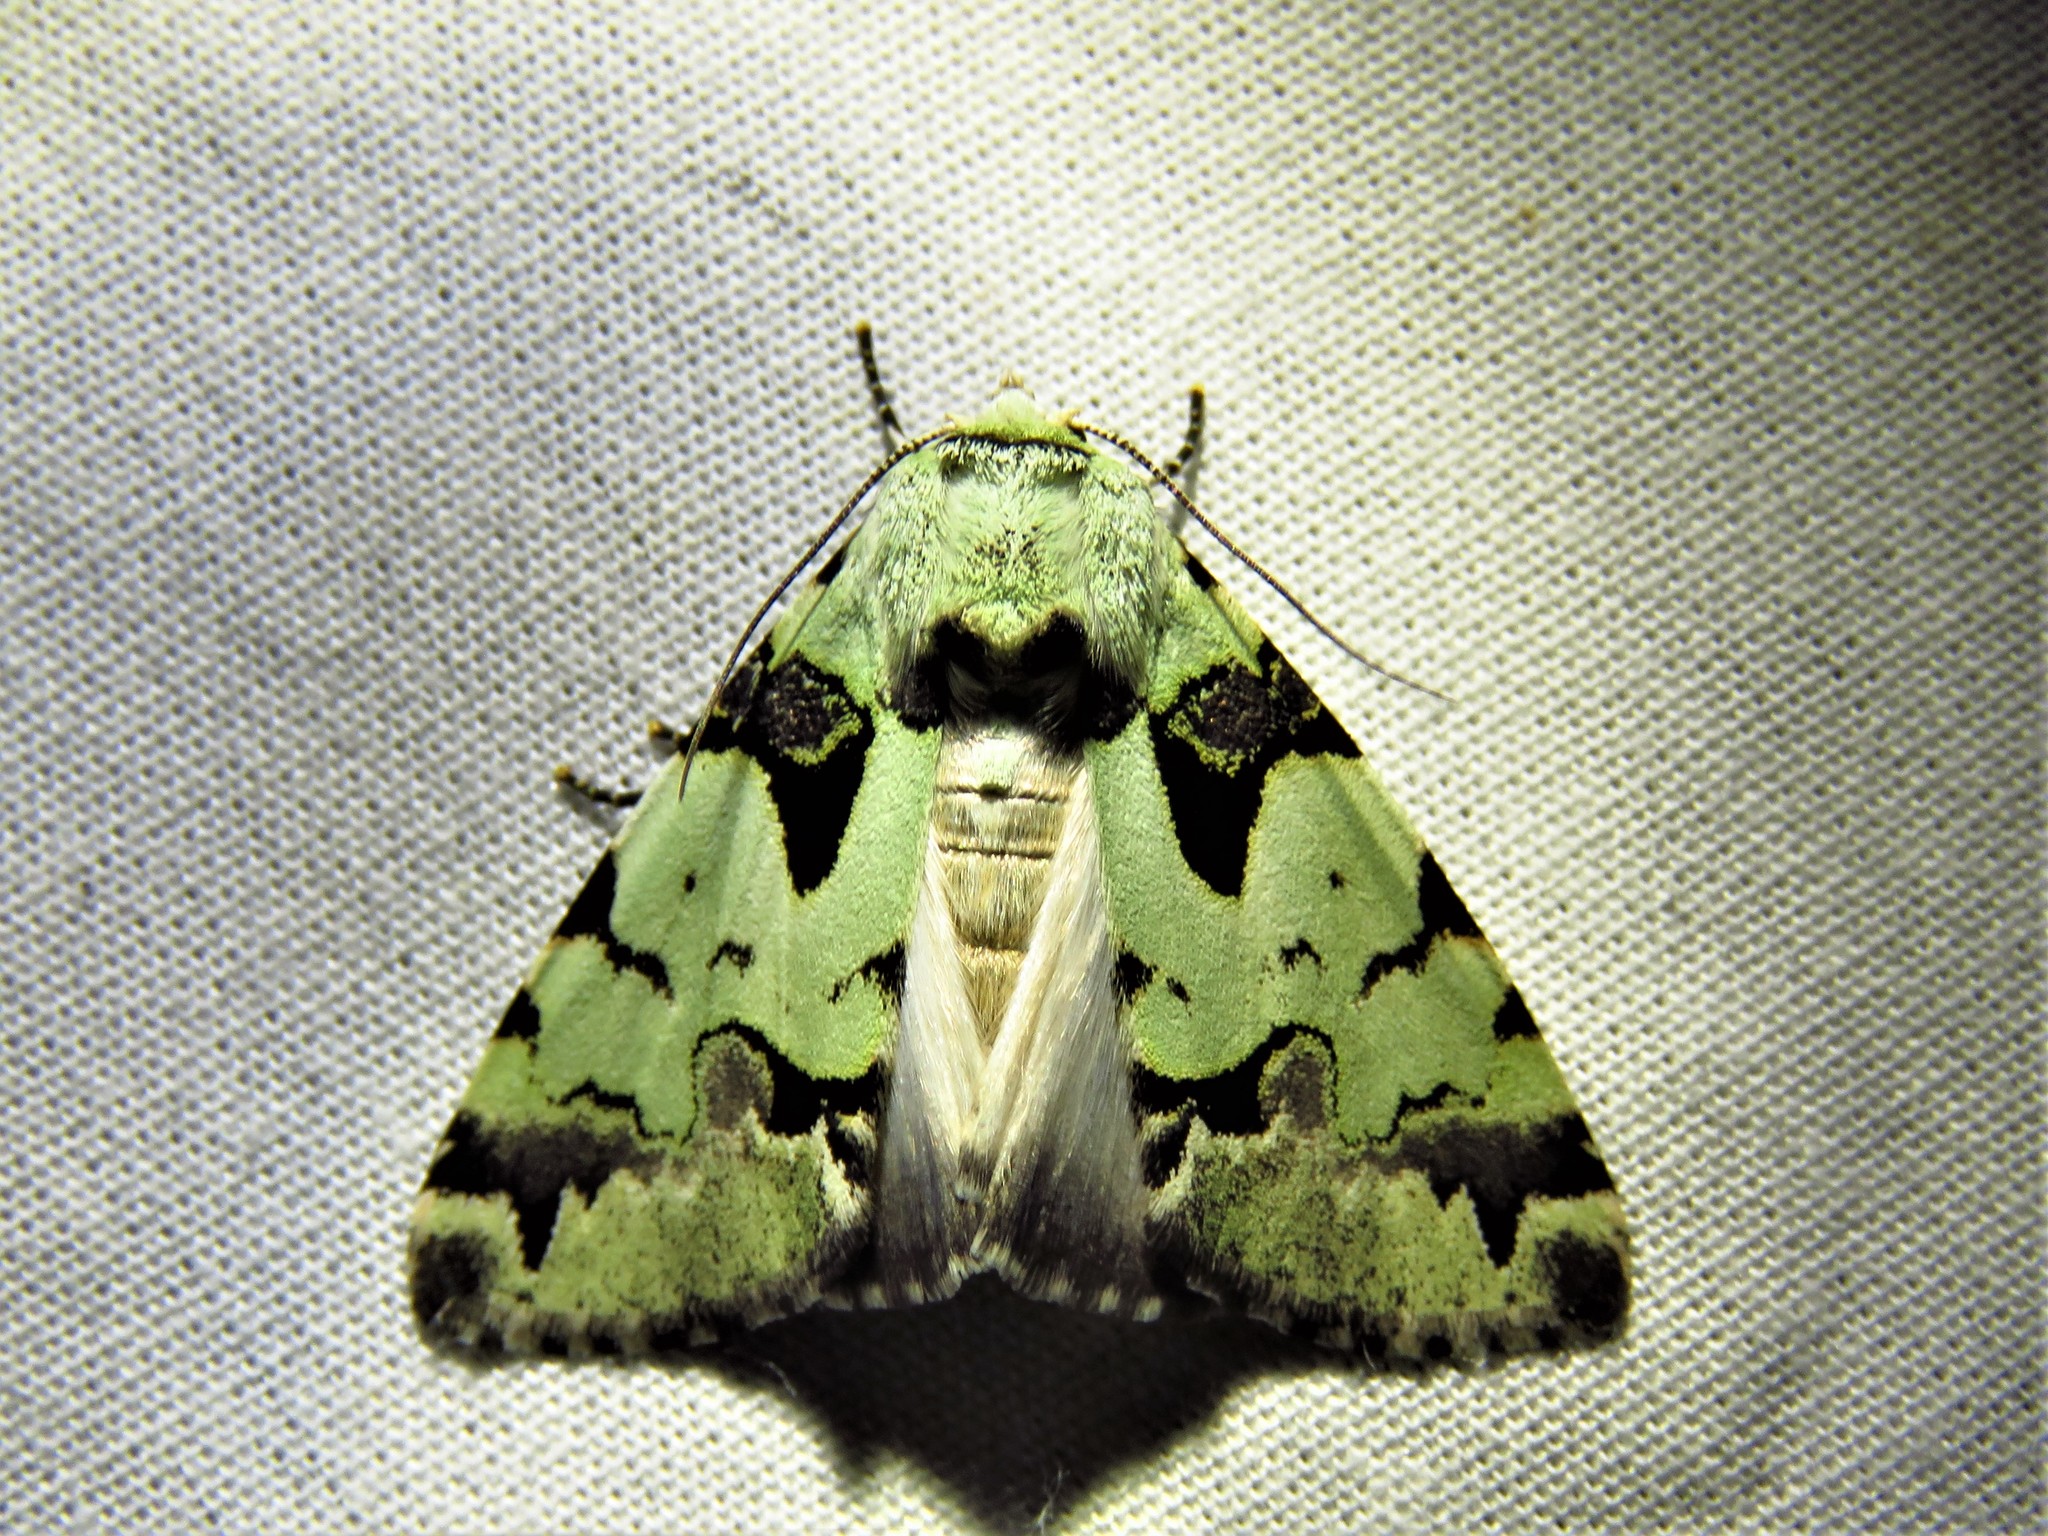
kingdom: Animalia
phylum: Arthropoda
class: Insecta
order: Lepidoptera
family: Erebidae
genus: Halochroa
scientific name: Halochroa aequatoria
